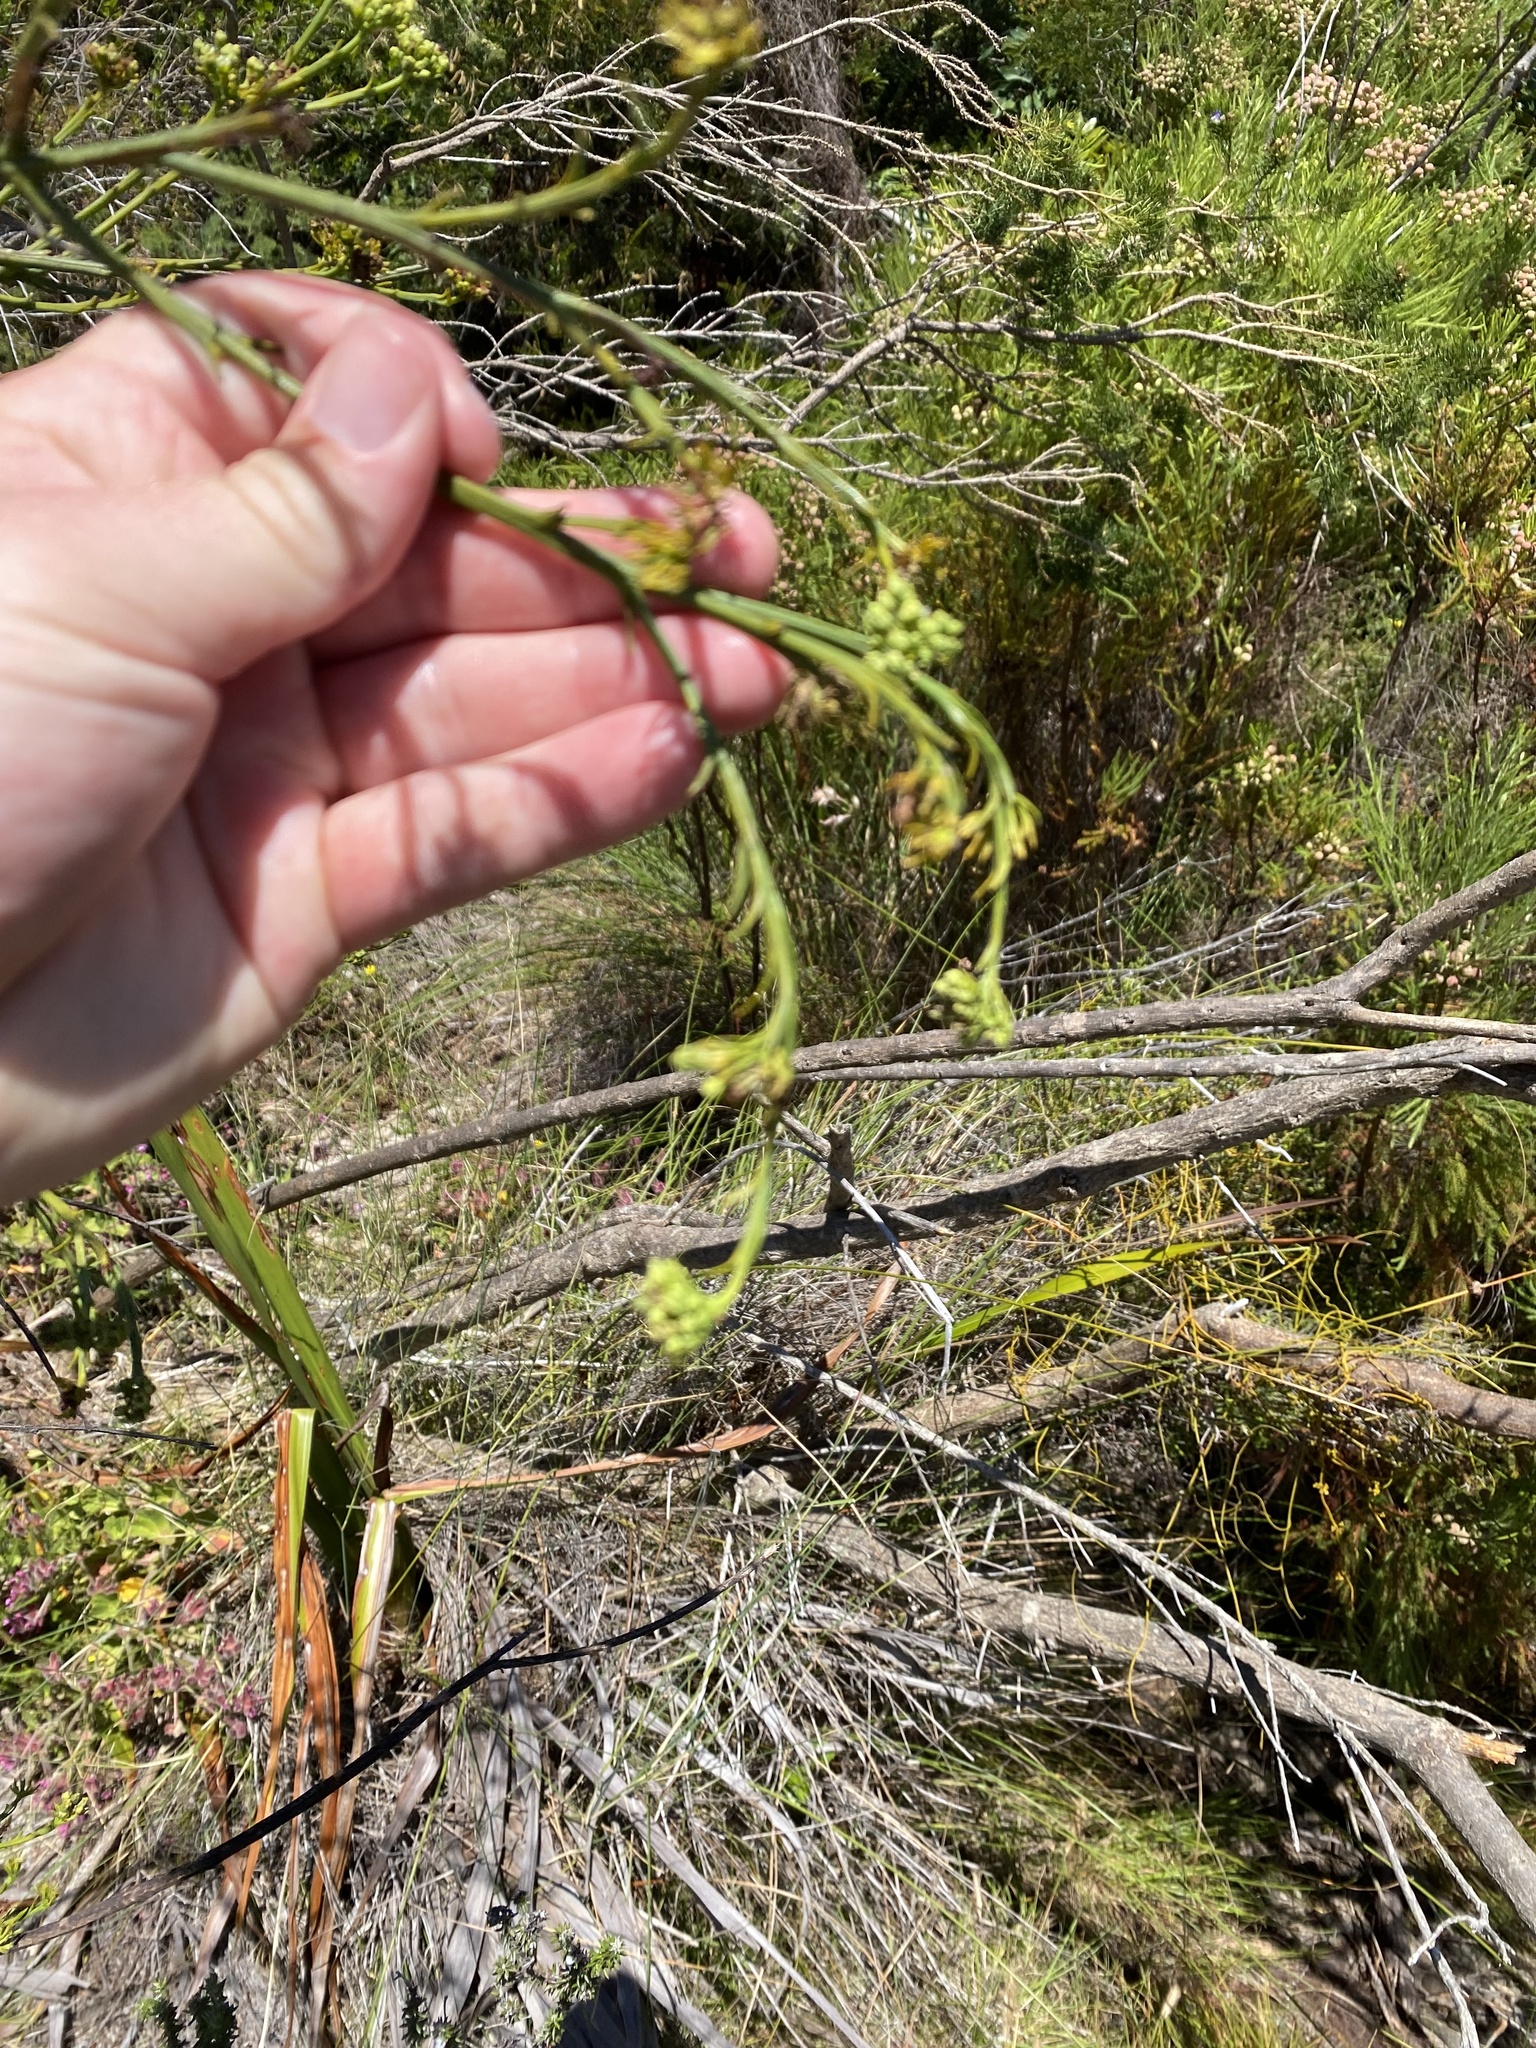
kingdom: Plantae
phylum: Tracheophyta
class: Magnoliopsida
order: Santalales
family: Thesiaceae
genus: Thesium
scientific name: Thesium strictum
